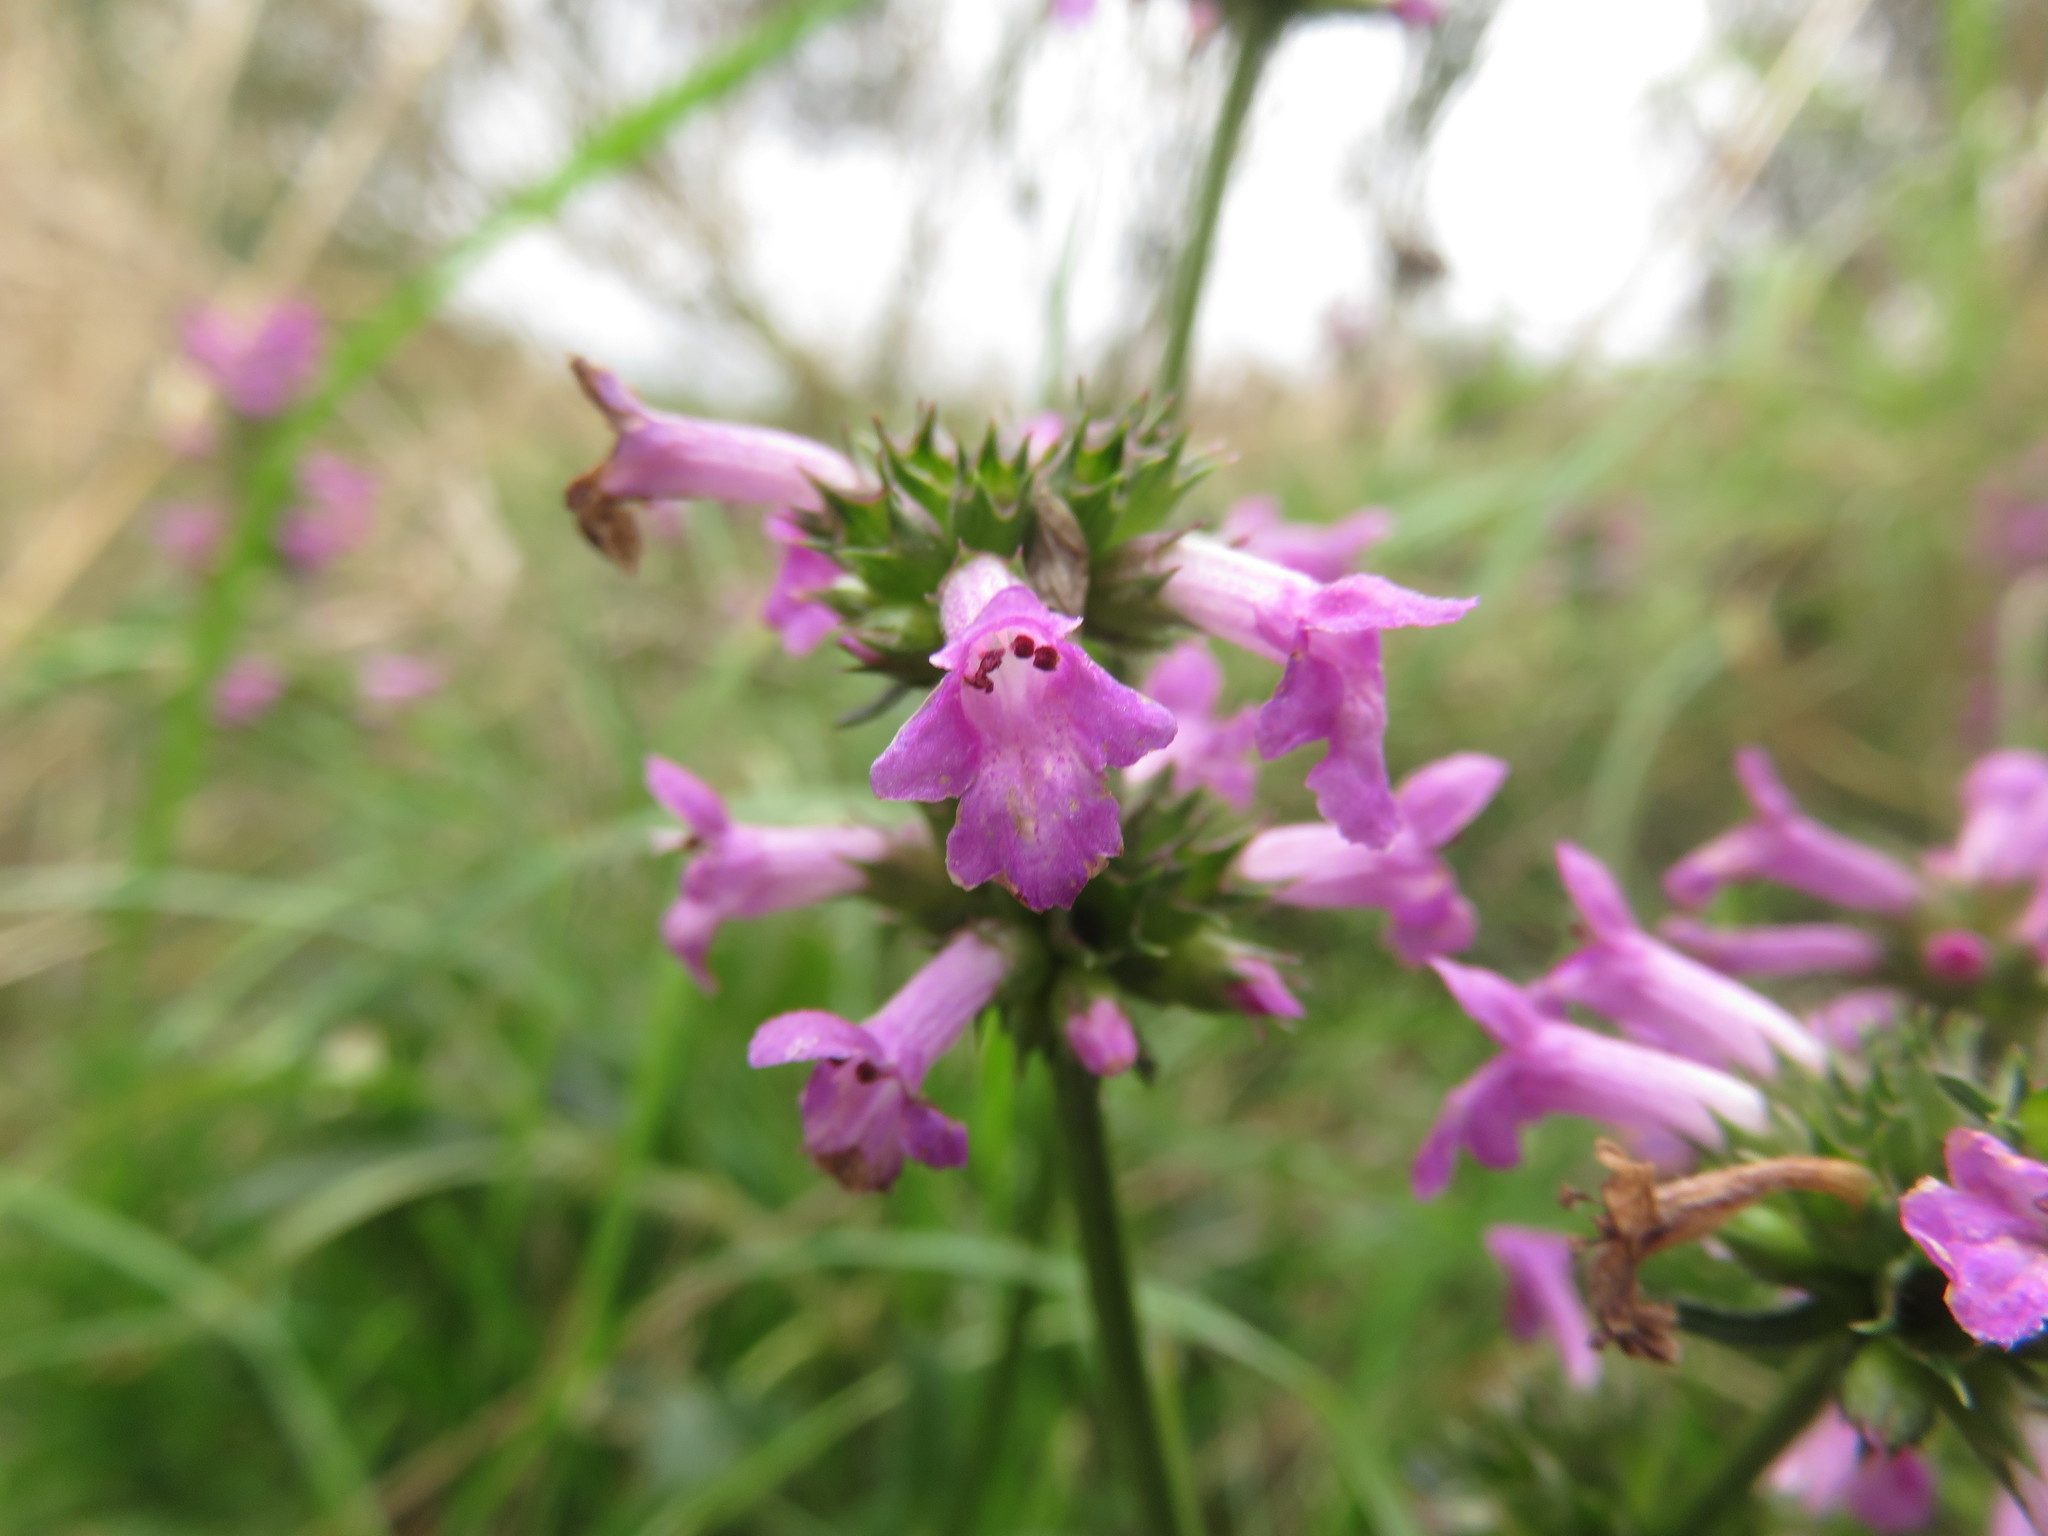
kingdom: Plantae
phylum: Tracheophyta
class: Magnoliopsida
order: Lamiales
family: Lamiaceae
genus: Betonica
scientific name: Betonica officinalis
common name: Bishop's-wort
